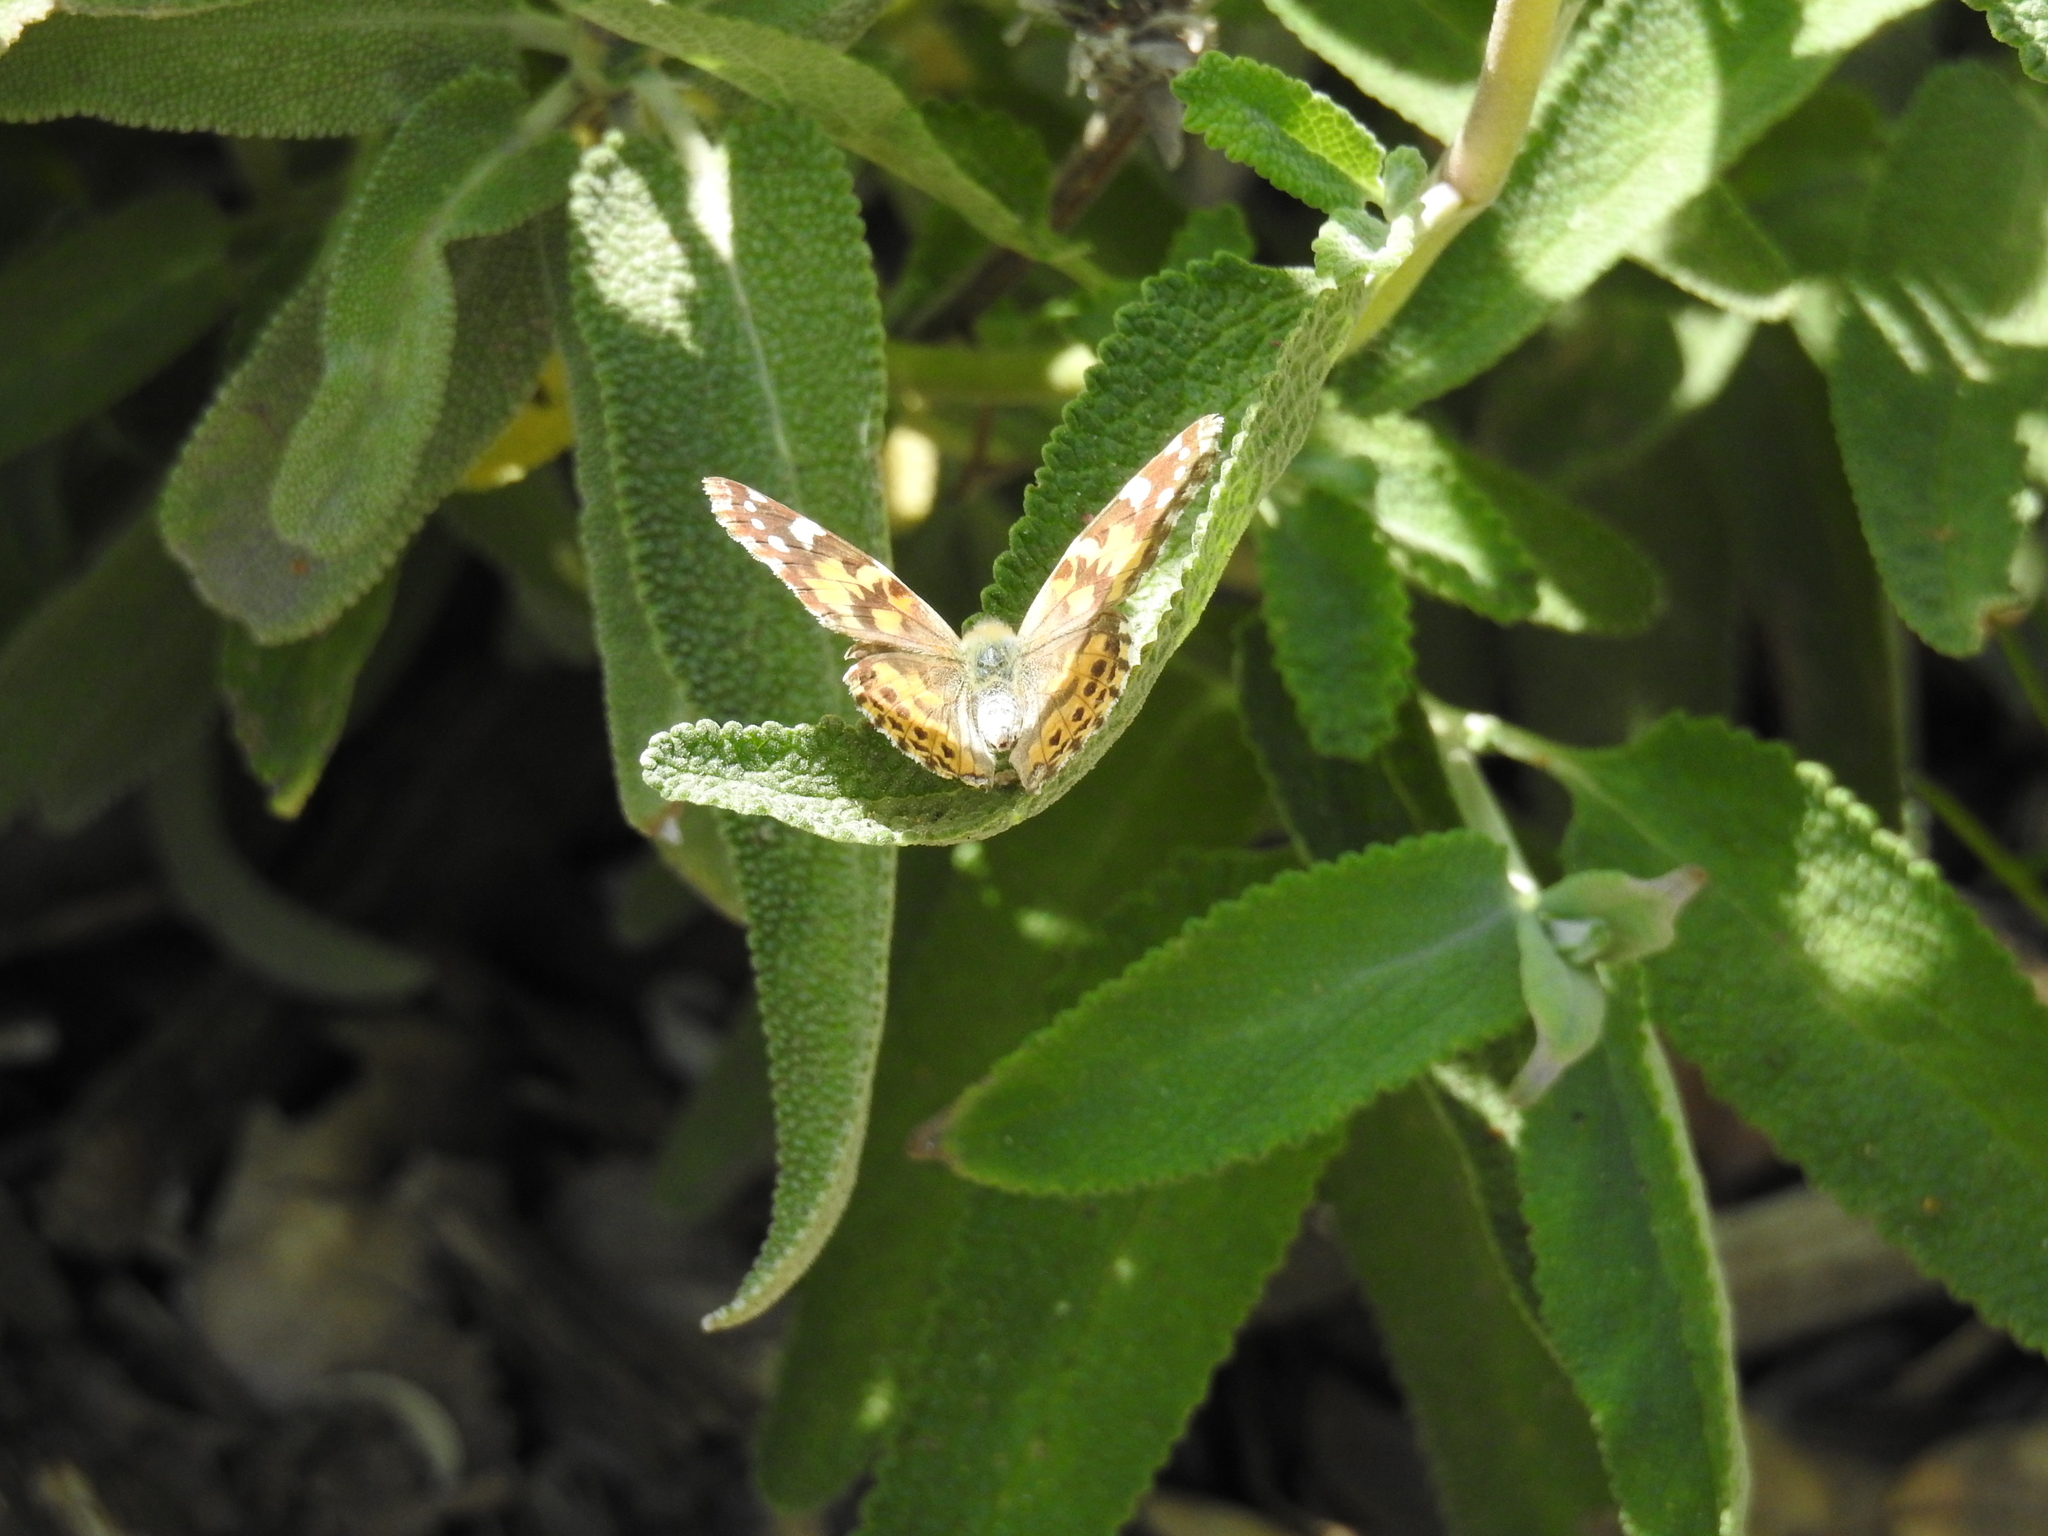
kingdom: Animalia
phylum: Arthropoda
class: Insecta
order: Lepidoptera
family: Nymphalidae
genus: Vanessa
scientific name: Vanessa cardui
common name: Painted lady
